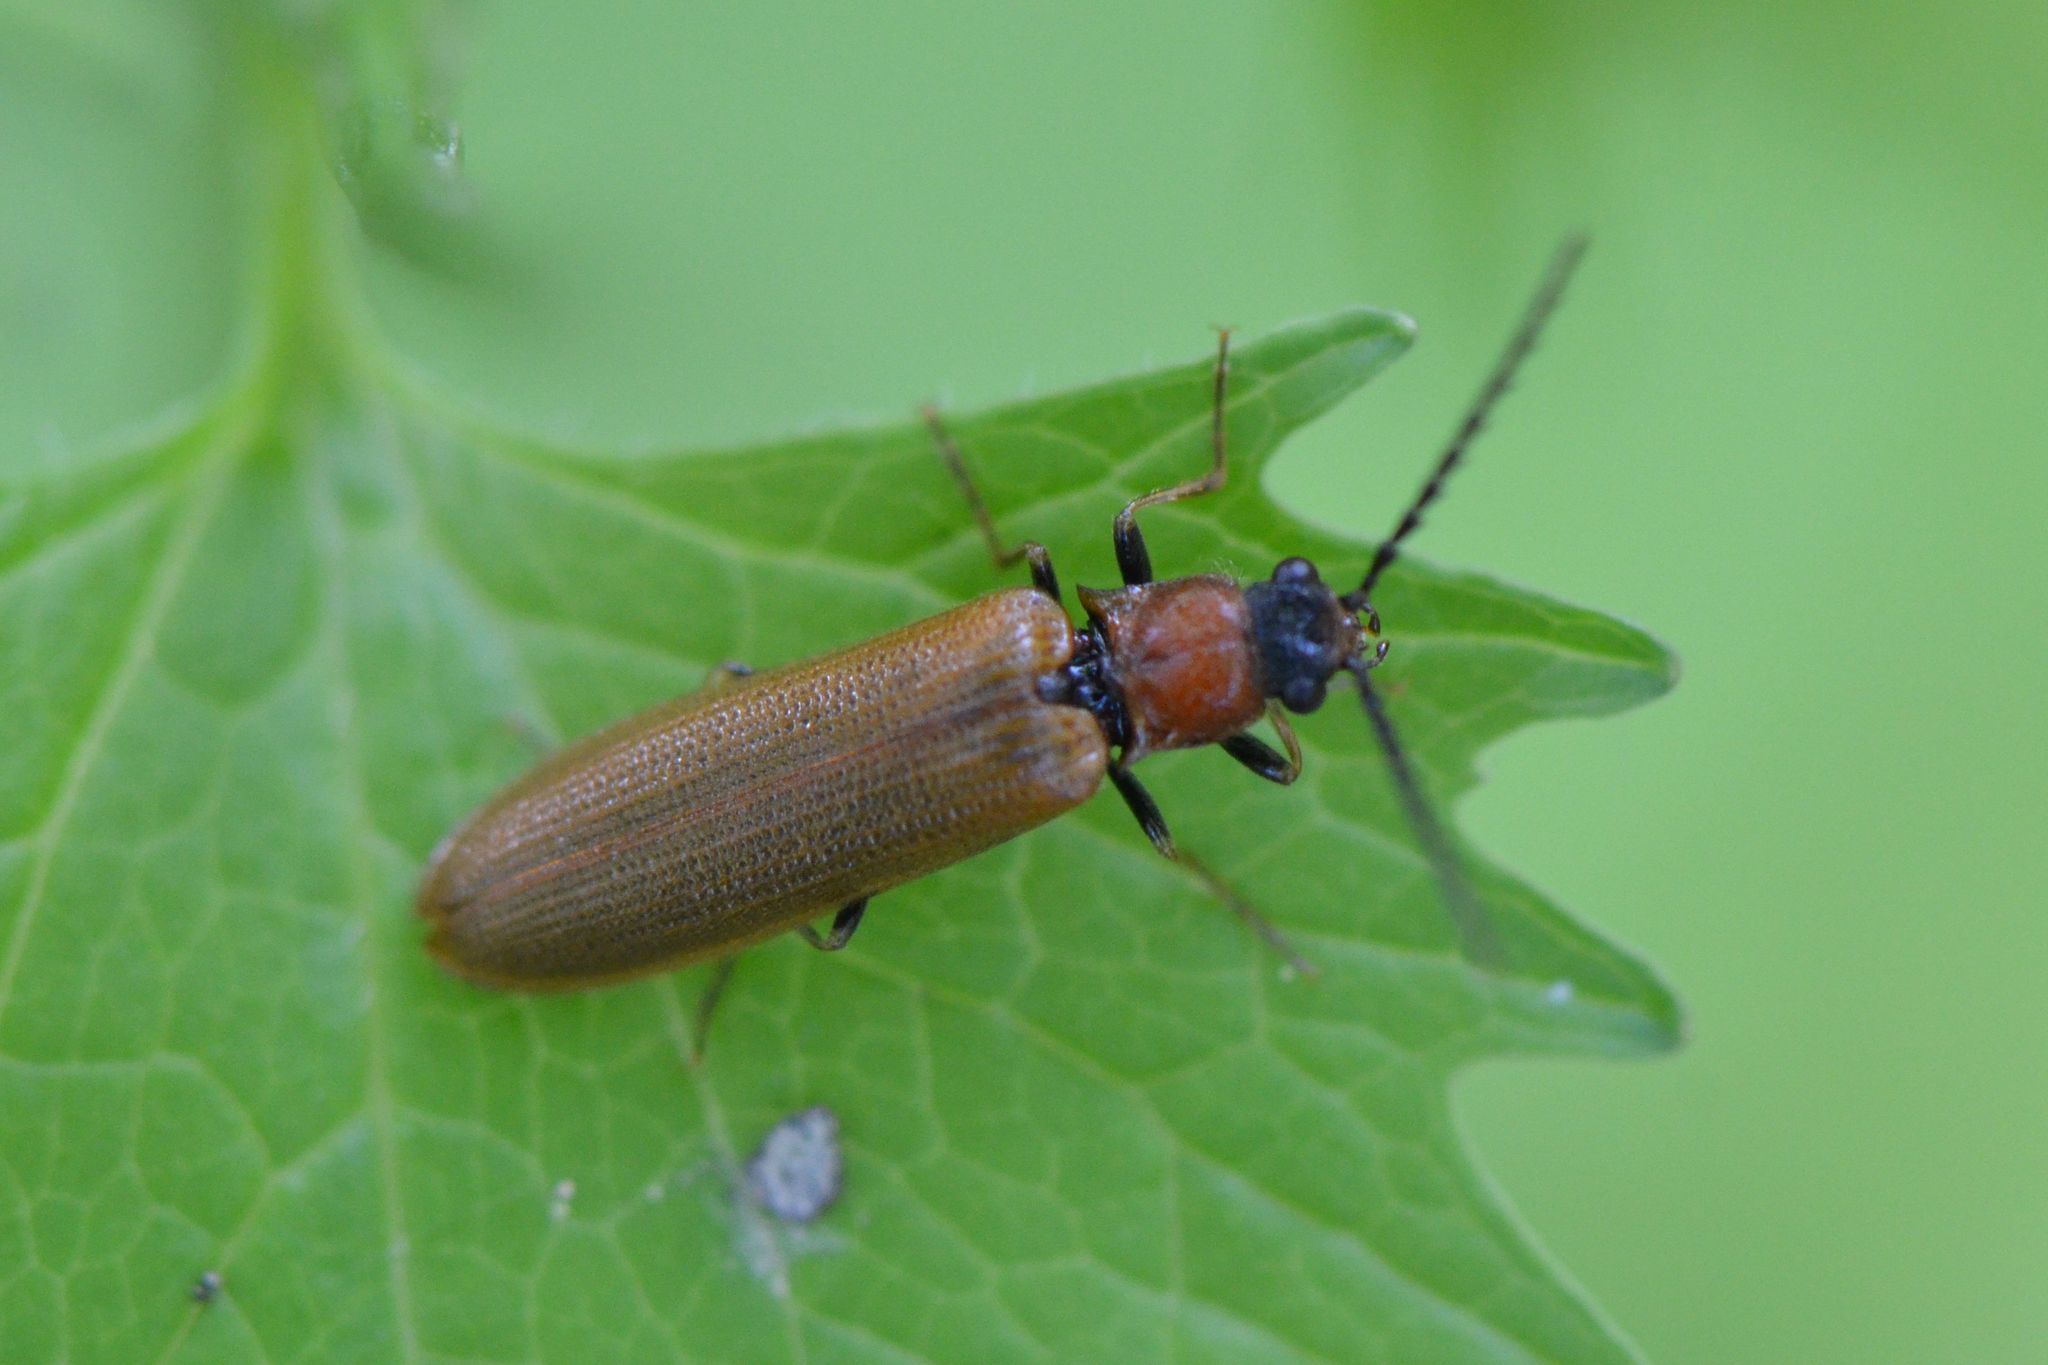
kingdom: Animalia
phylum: Arthropoda
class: Insecta
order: Coleoptera
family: Elateridae
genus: Denticollis
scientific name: Denticollis linearis
